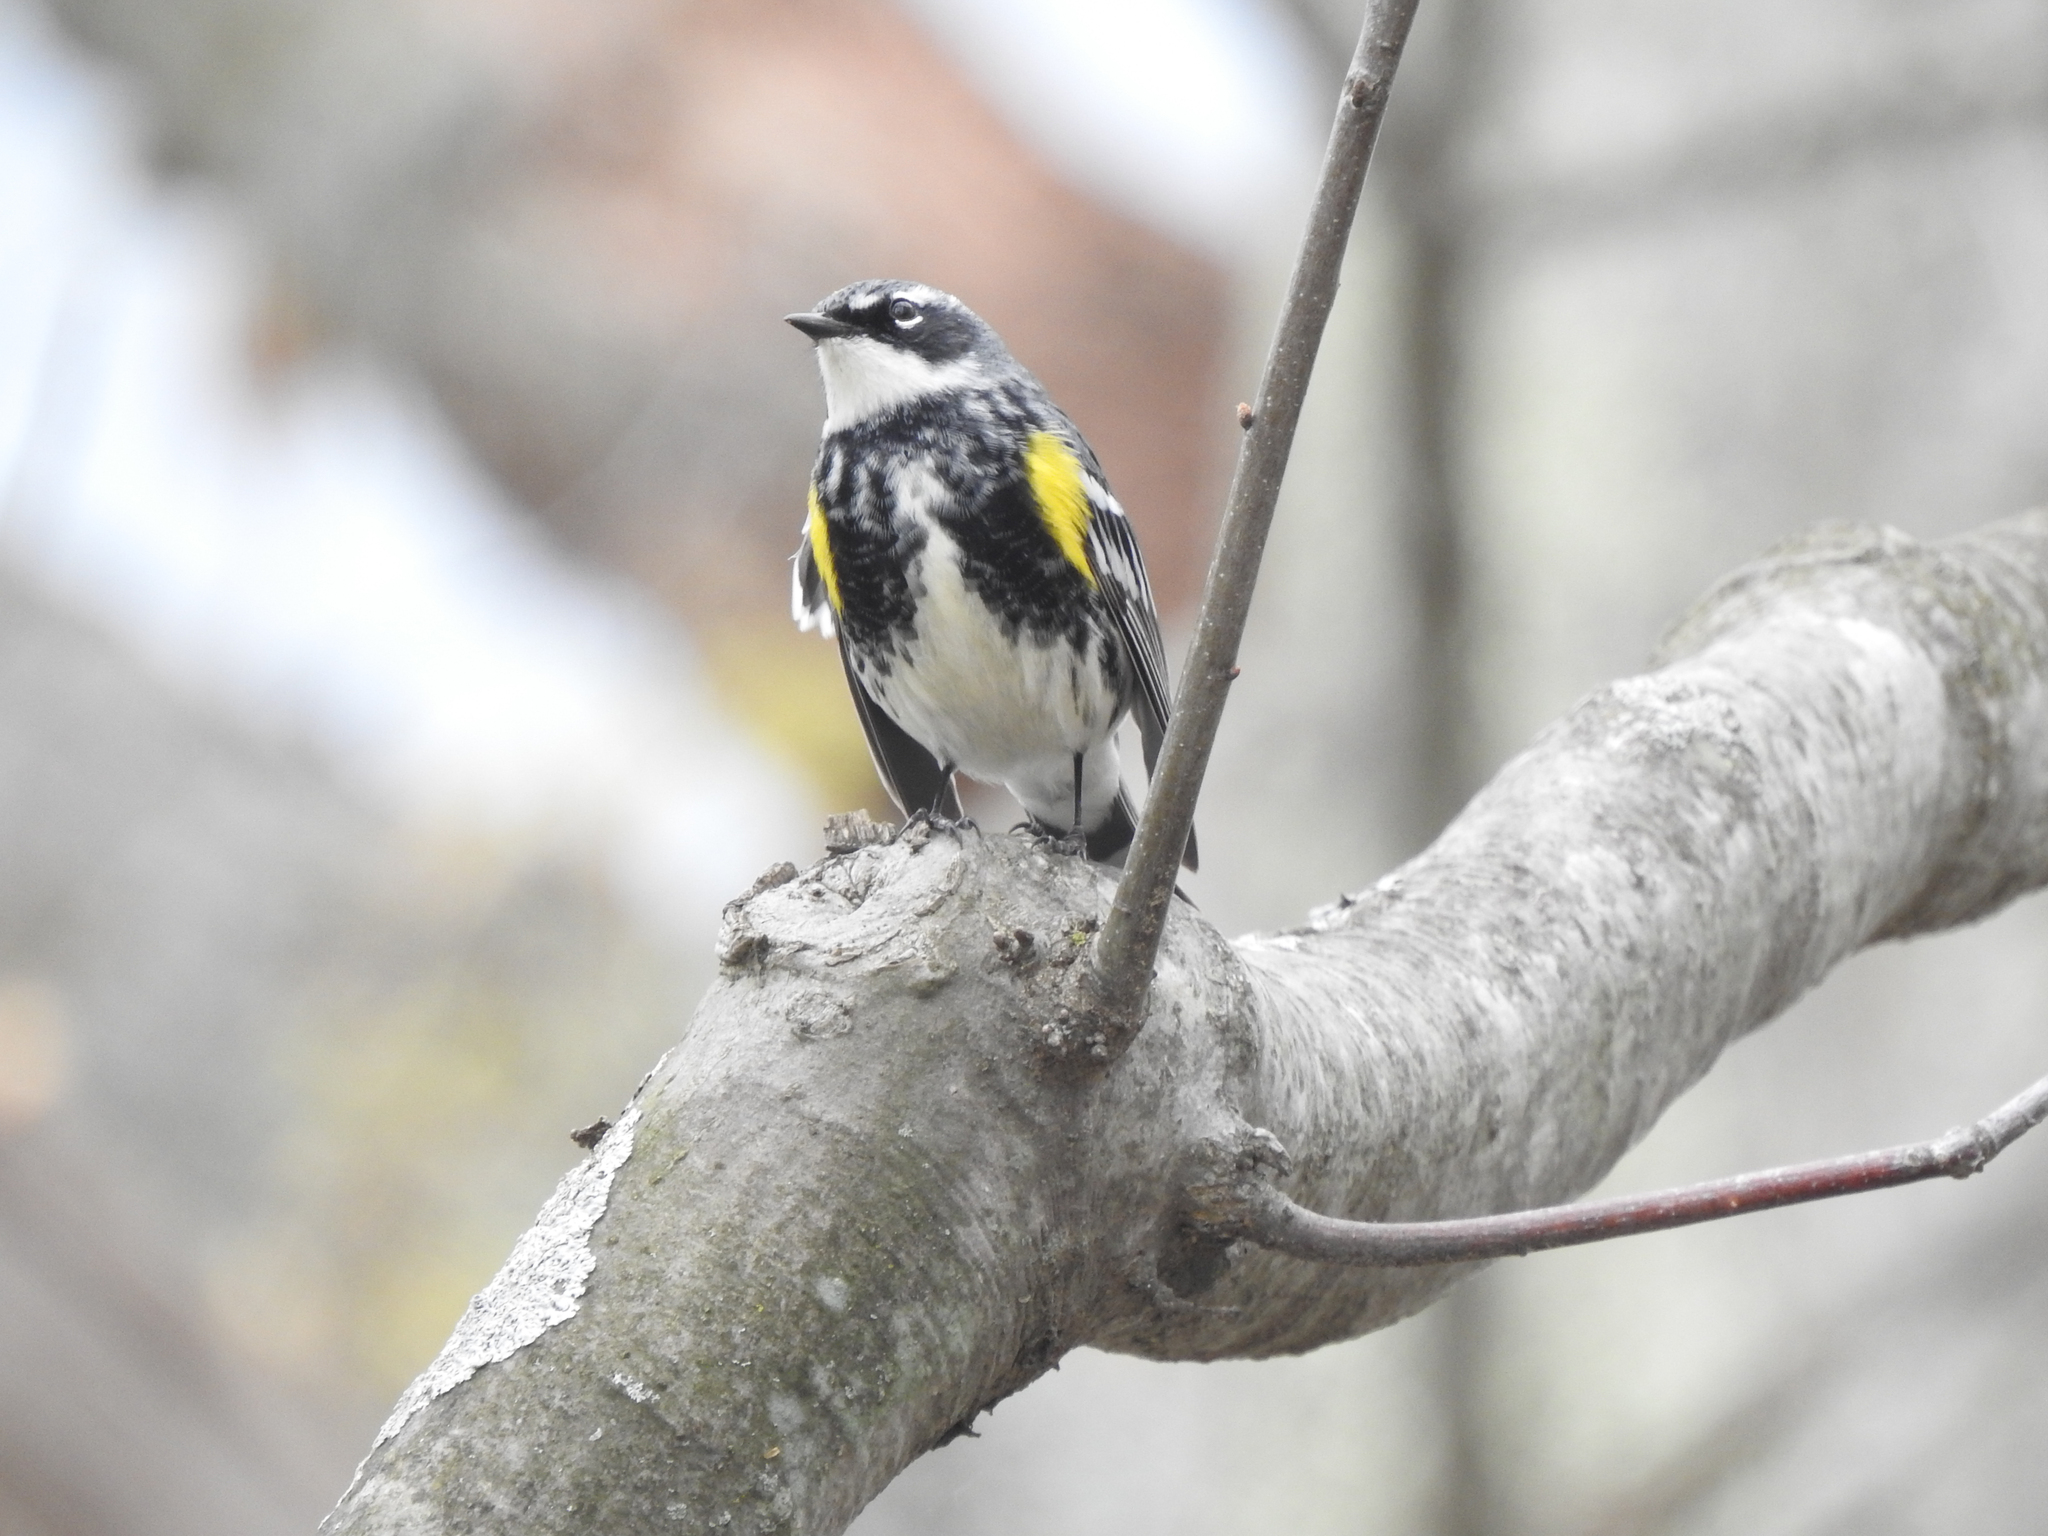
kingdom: Animalia
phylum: Chordata
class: Aves
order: Passeriformes
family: Parulidae
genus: Setophaga
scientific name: Setophaga coronata
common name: Myrtle warbler
